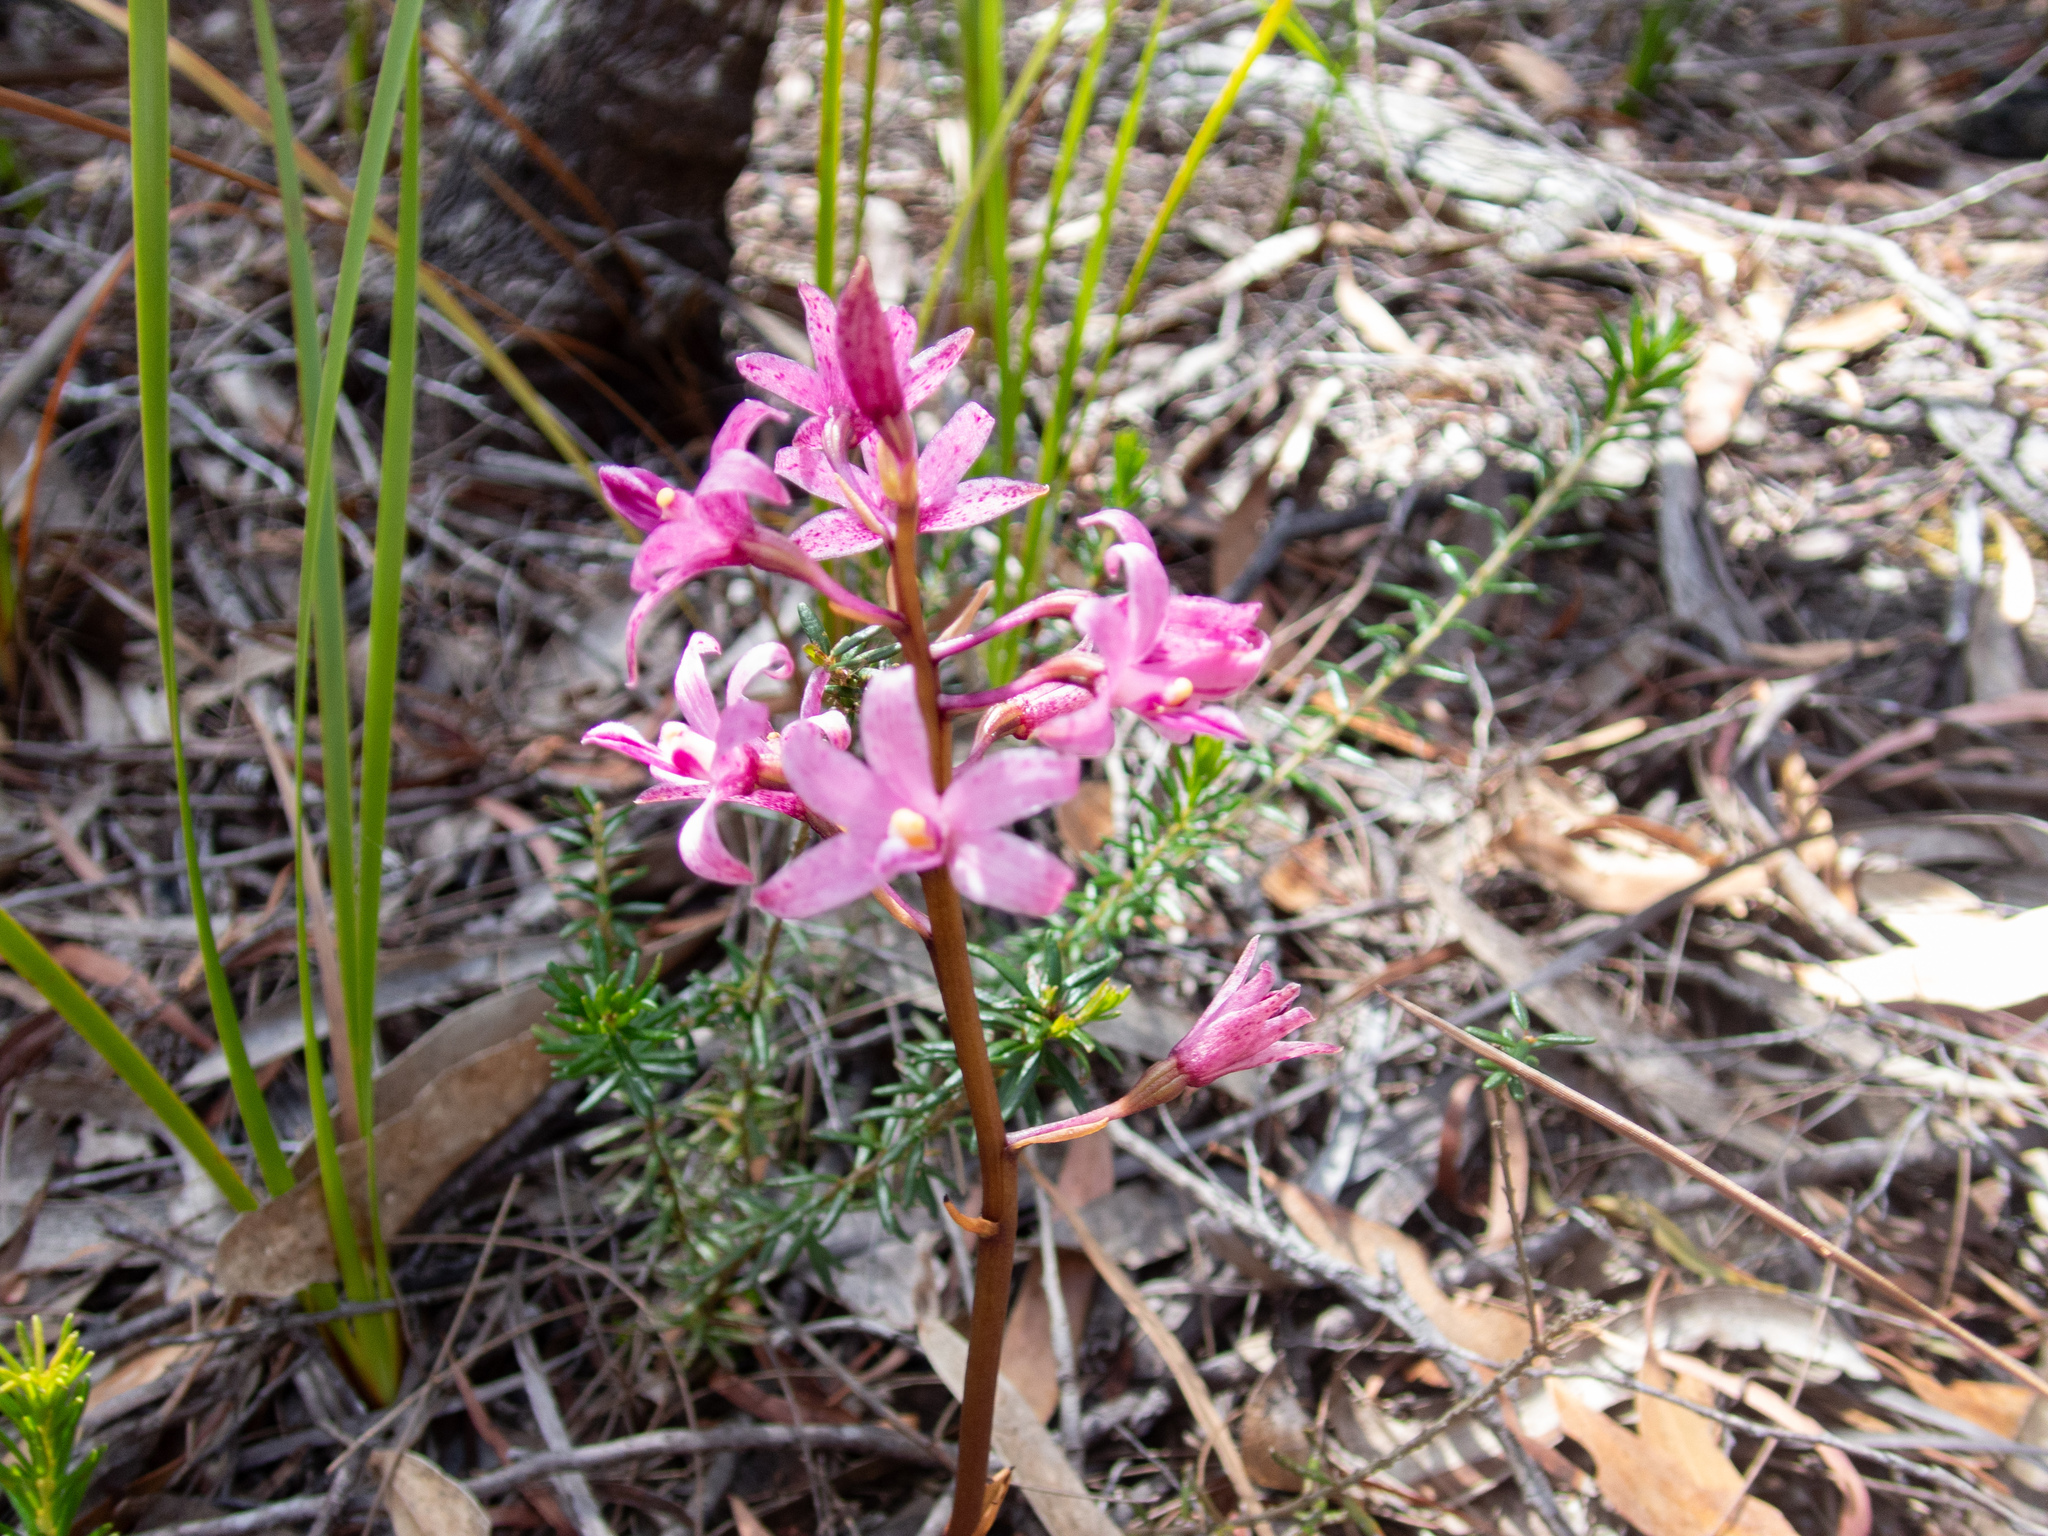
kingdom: Plantae
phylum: Tracheophyta
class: Liliopsida
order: Asparagales
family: Orchidaceae
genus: Dipodium
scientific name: Dipodium roseum
